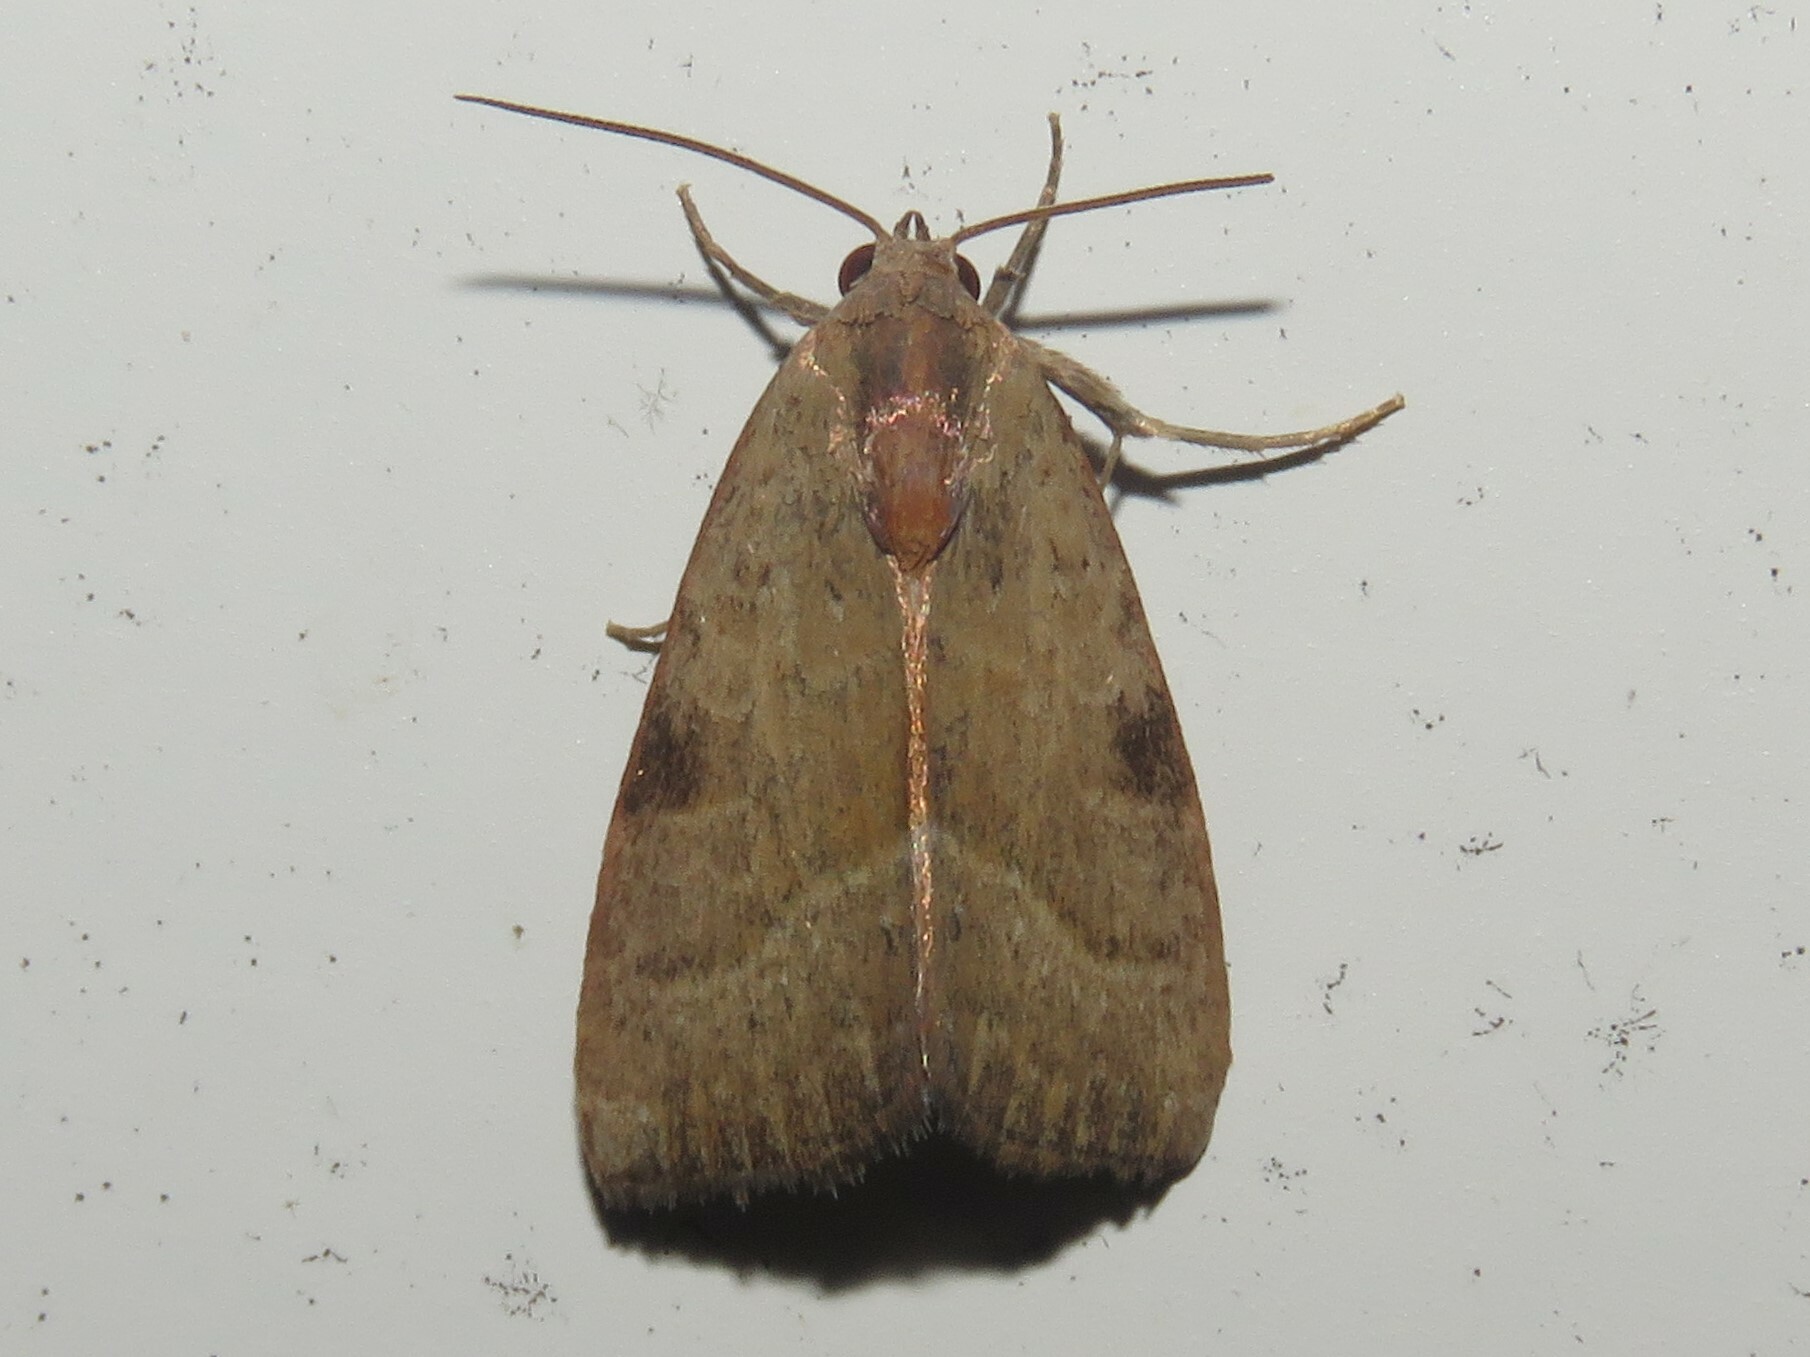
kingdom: Animalia
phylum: Arthropoda
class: Insecta
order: Lepidoptera
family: Noctuidae
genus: Galgula
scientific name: Galgula partita
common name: Wedgeling
